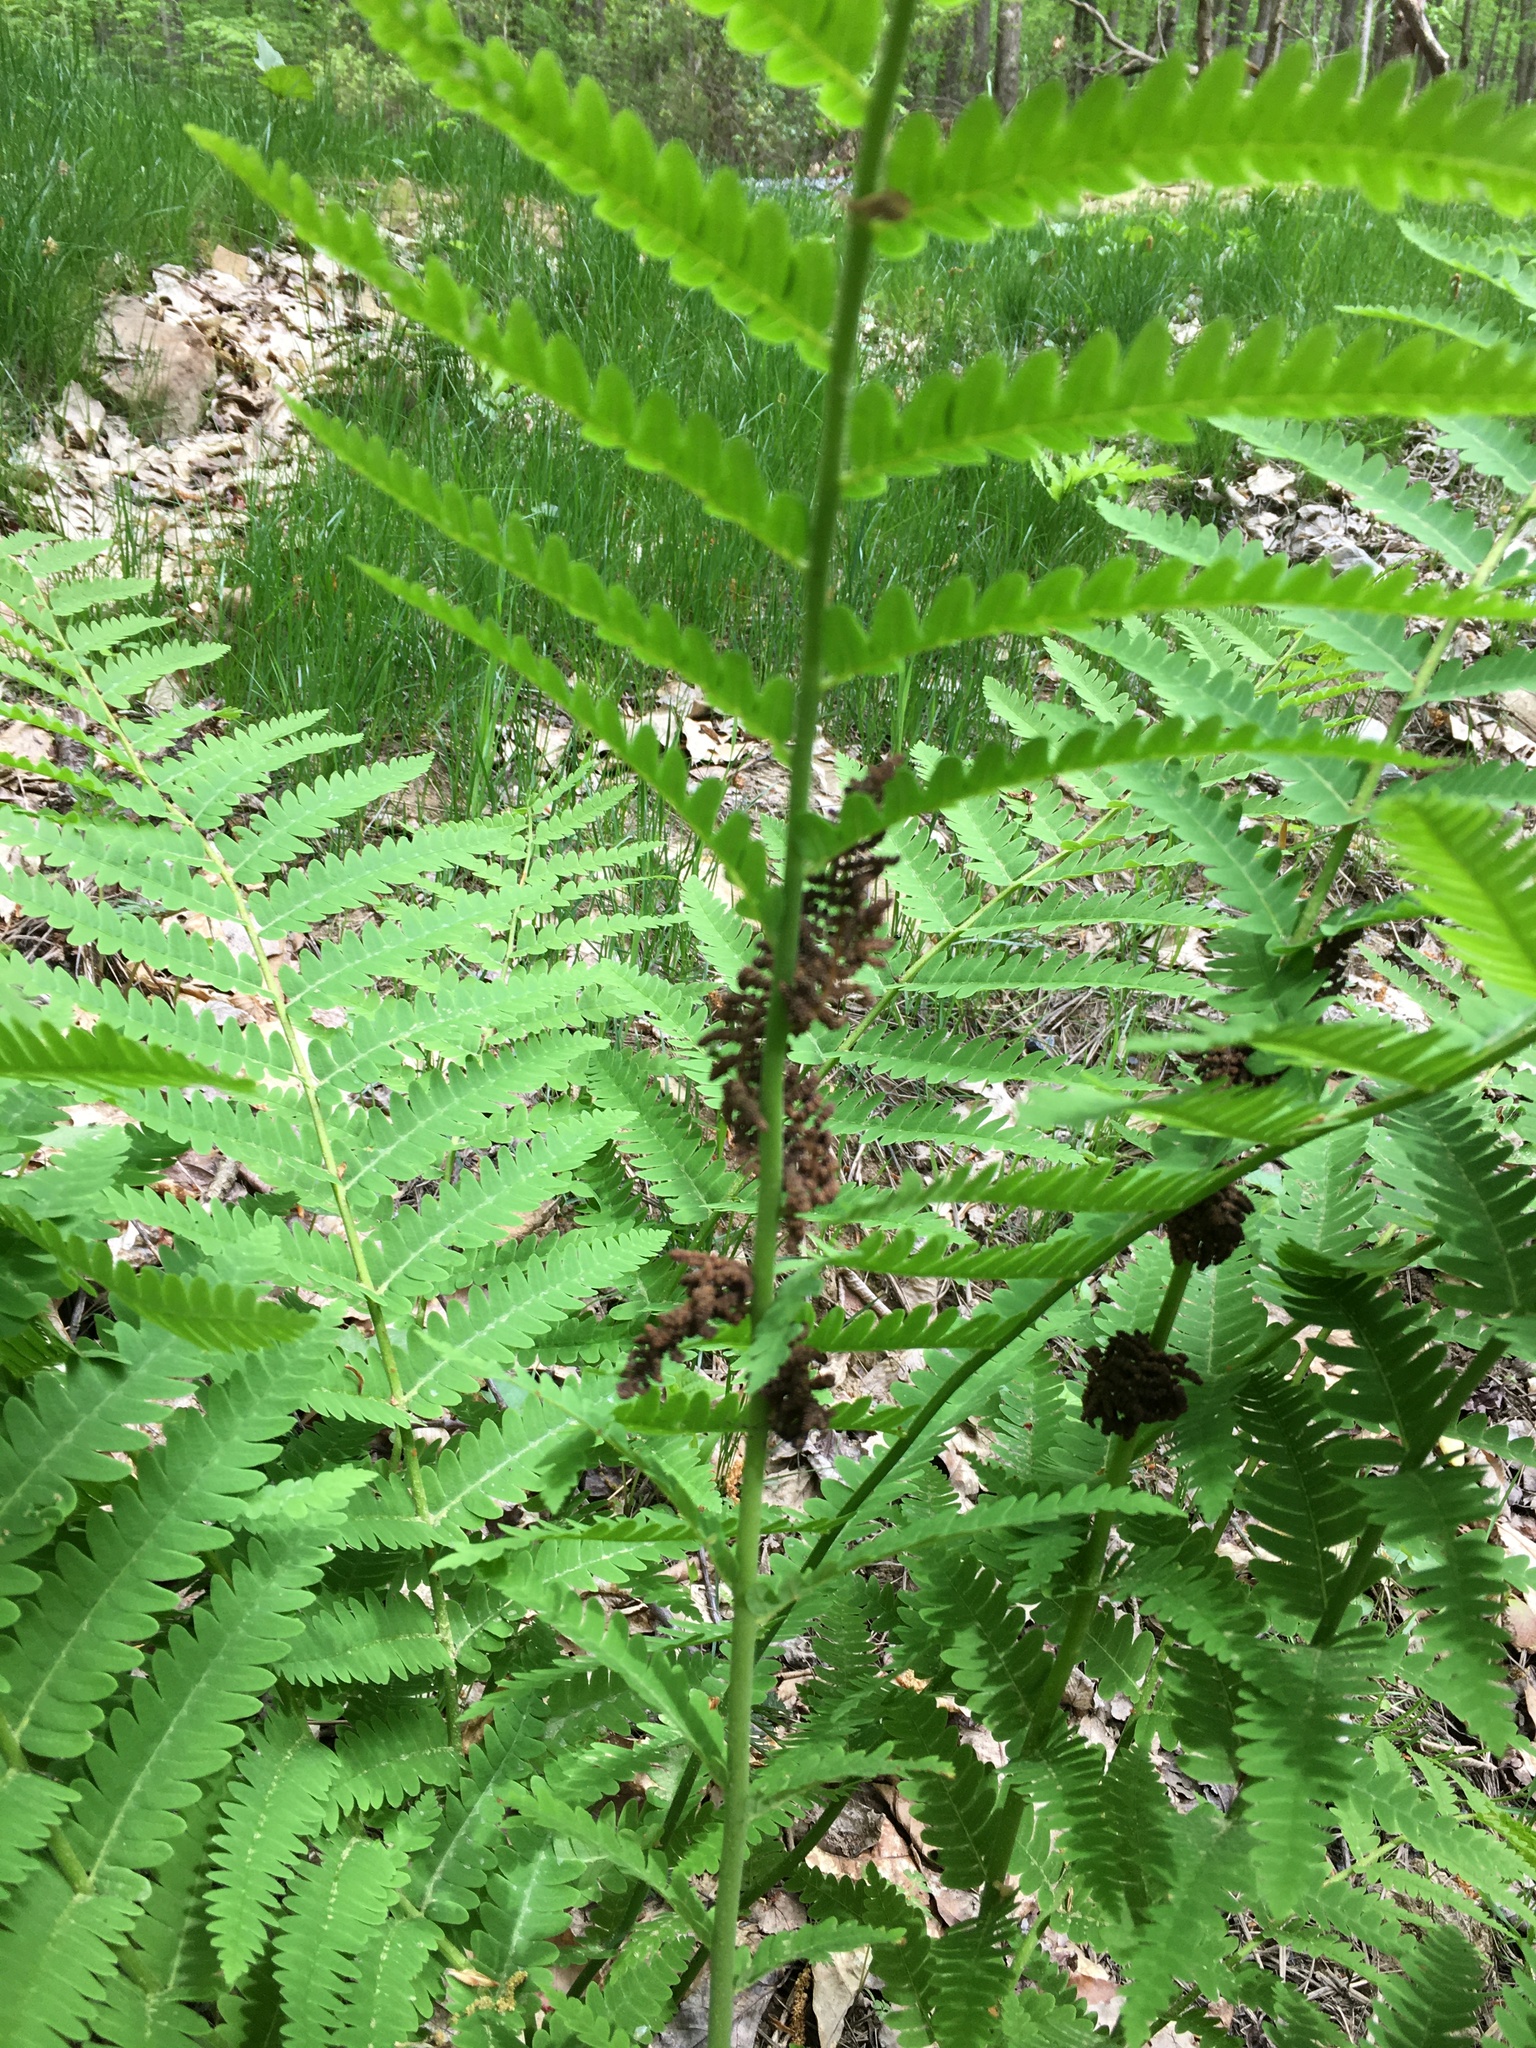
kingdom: Plantae
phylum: Tracheophyta
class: Polypodiopsida
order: Osmundales
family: Osmundaceae
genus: Claytosmunda
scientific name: Claytosmunda claytoniana
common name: Clayton's fern
